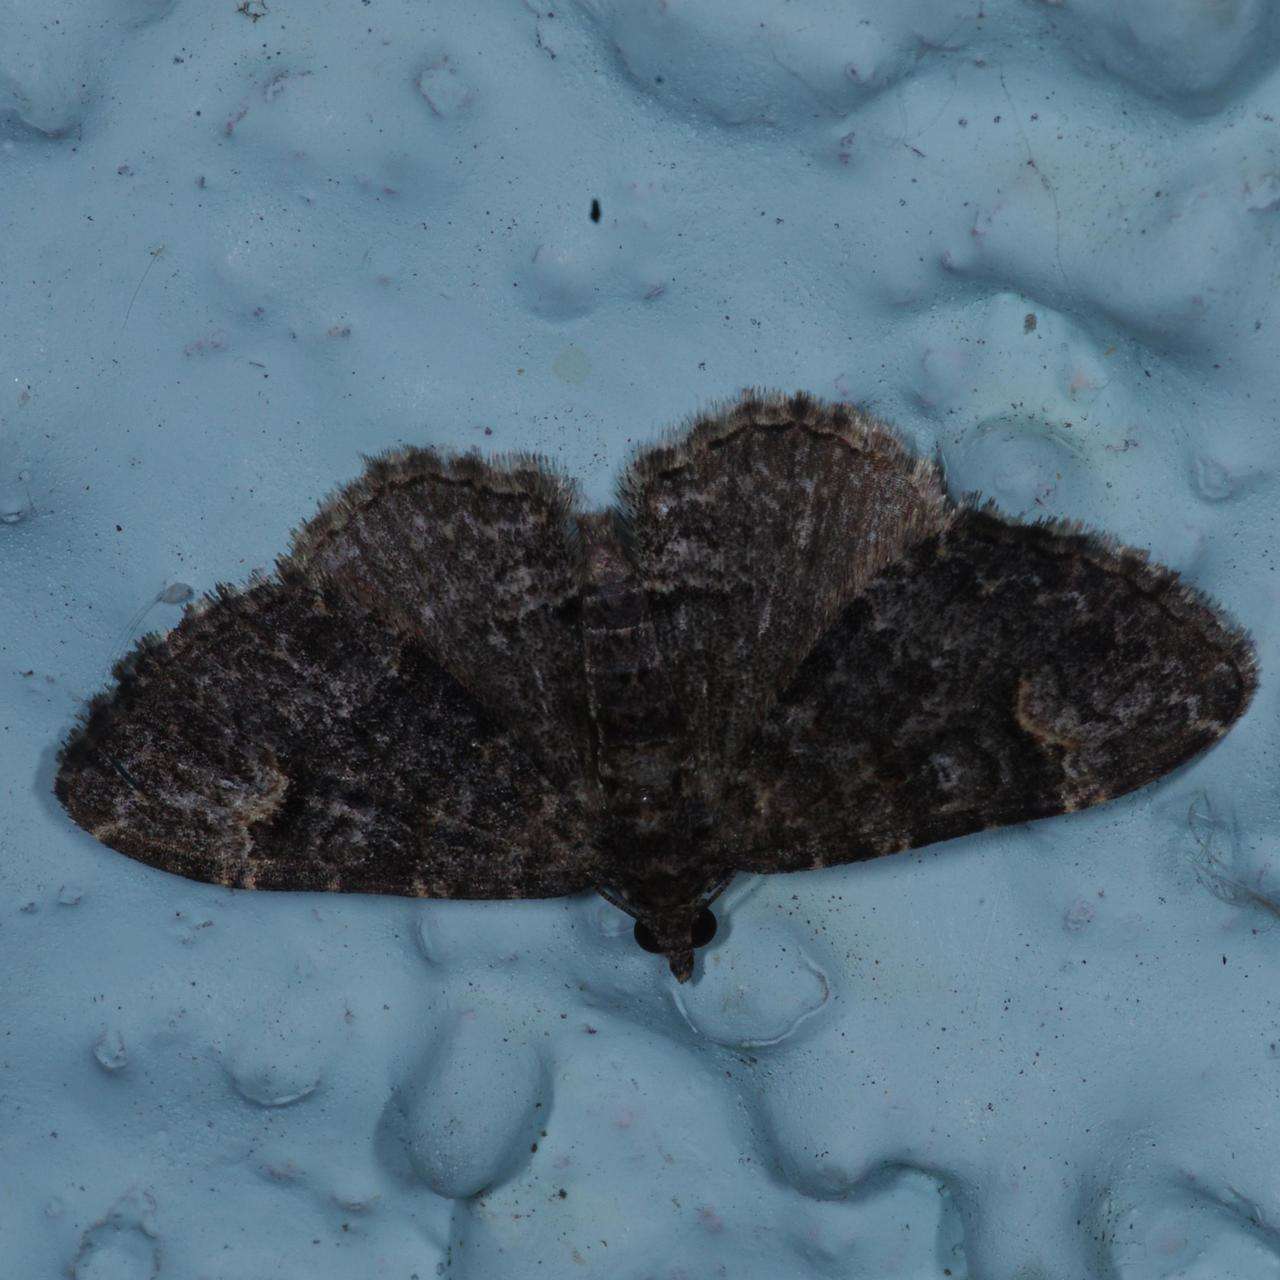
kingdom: Animalia
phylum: Arthropoda
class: Insecta
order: Lepidoptera
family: Geometridae
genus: Epyaxa
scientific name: Epyaxa sodaliata
